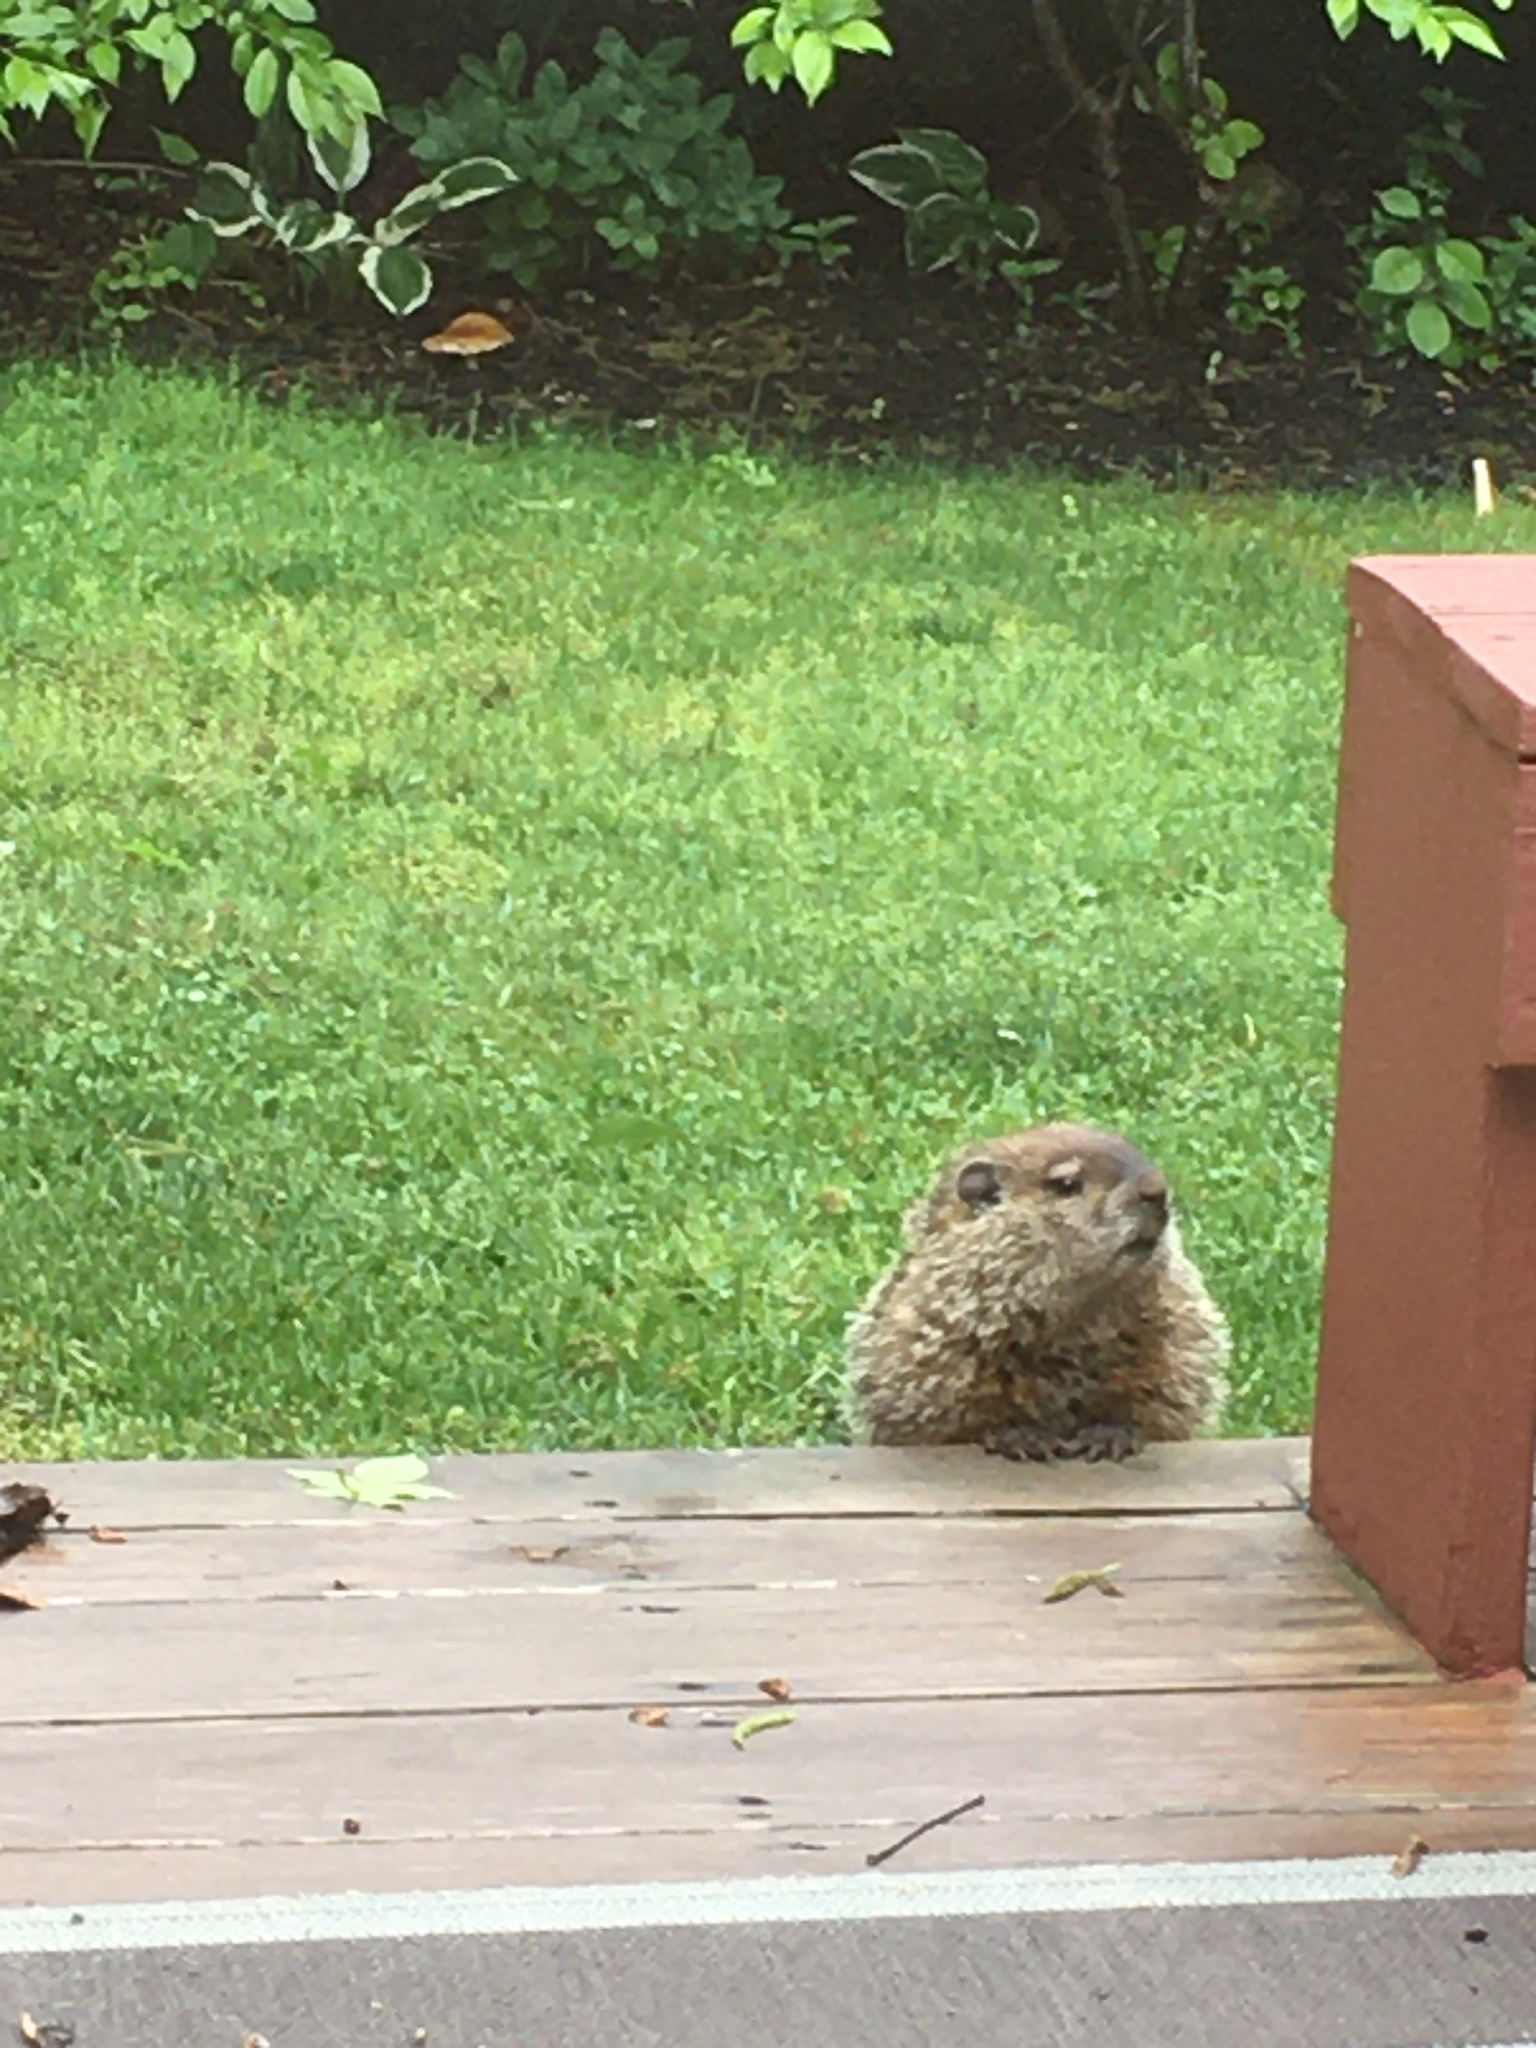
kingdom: Animalia
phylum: Chordata
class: Mammalia
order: Rodentia
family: Sciuridae
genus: Marmota
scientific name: Marmota monax
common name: Groundhog
